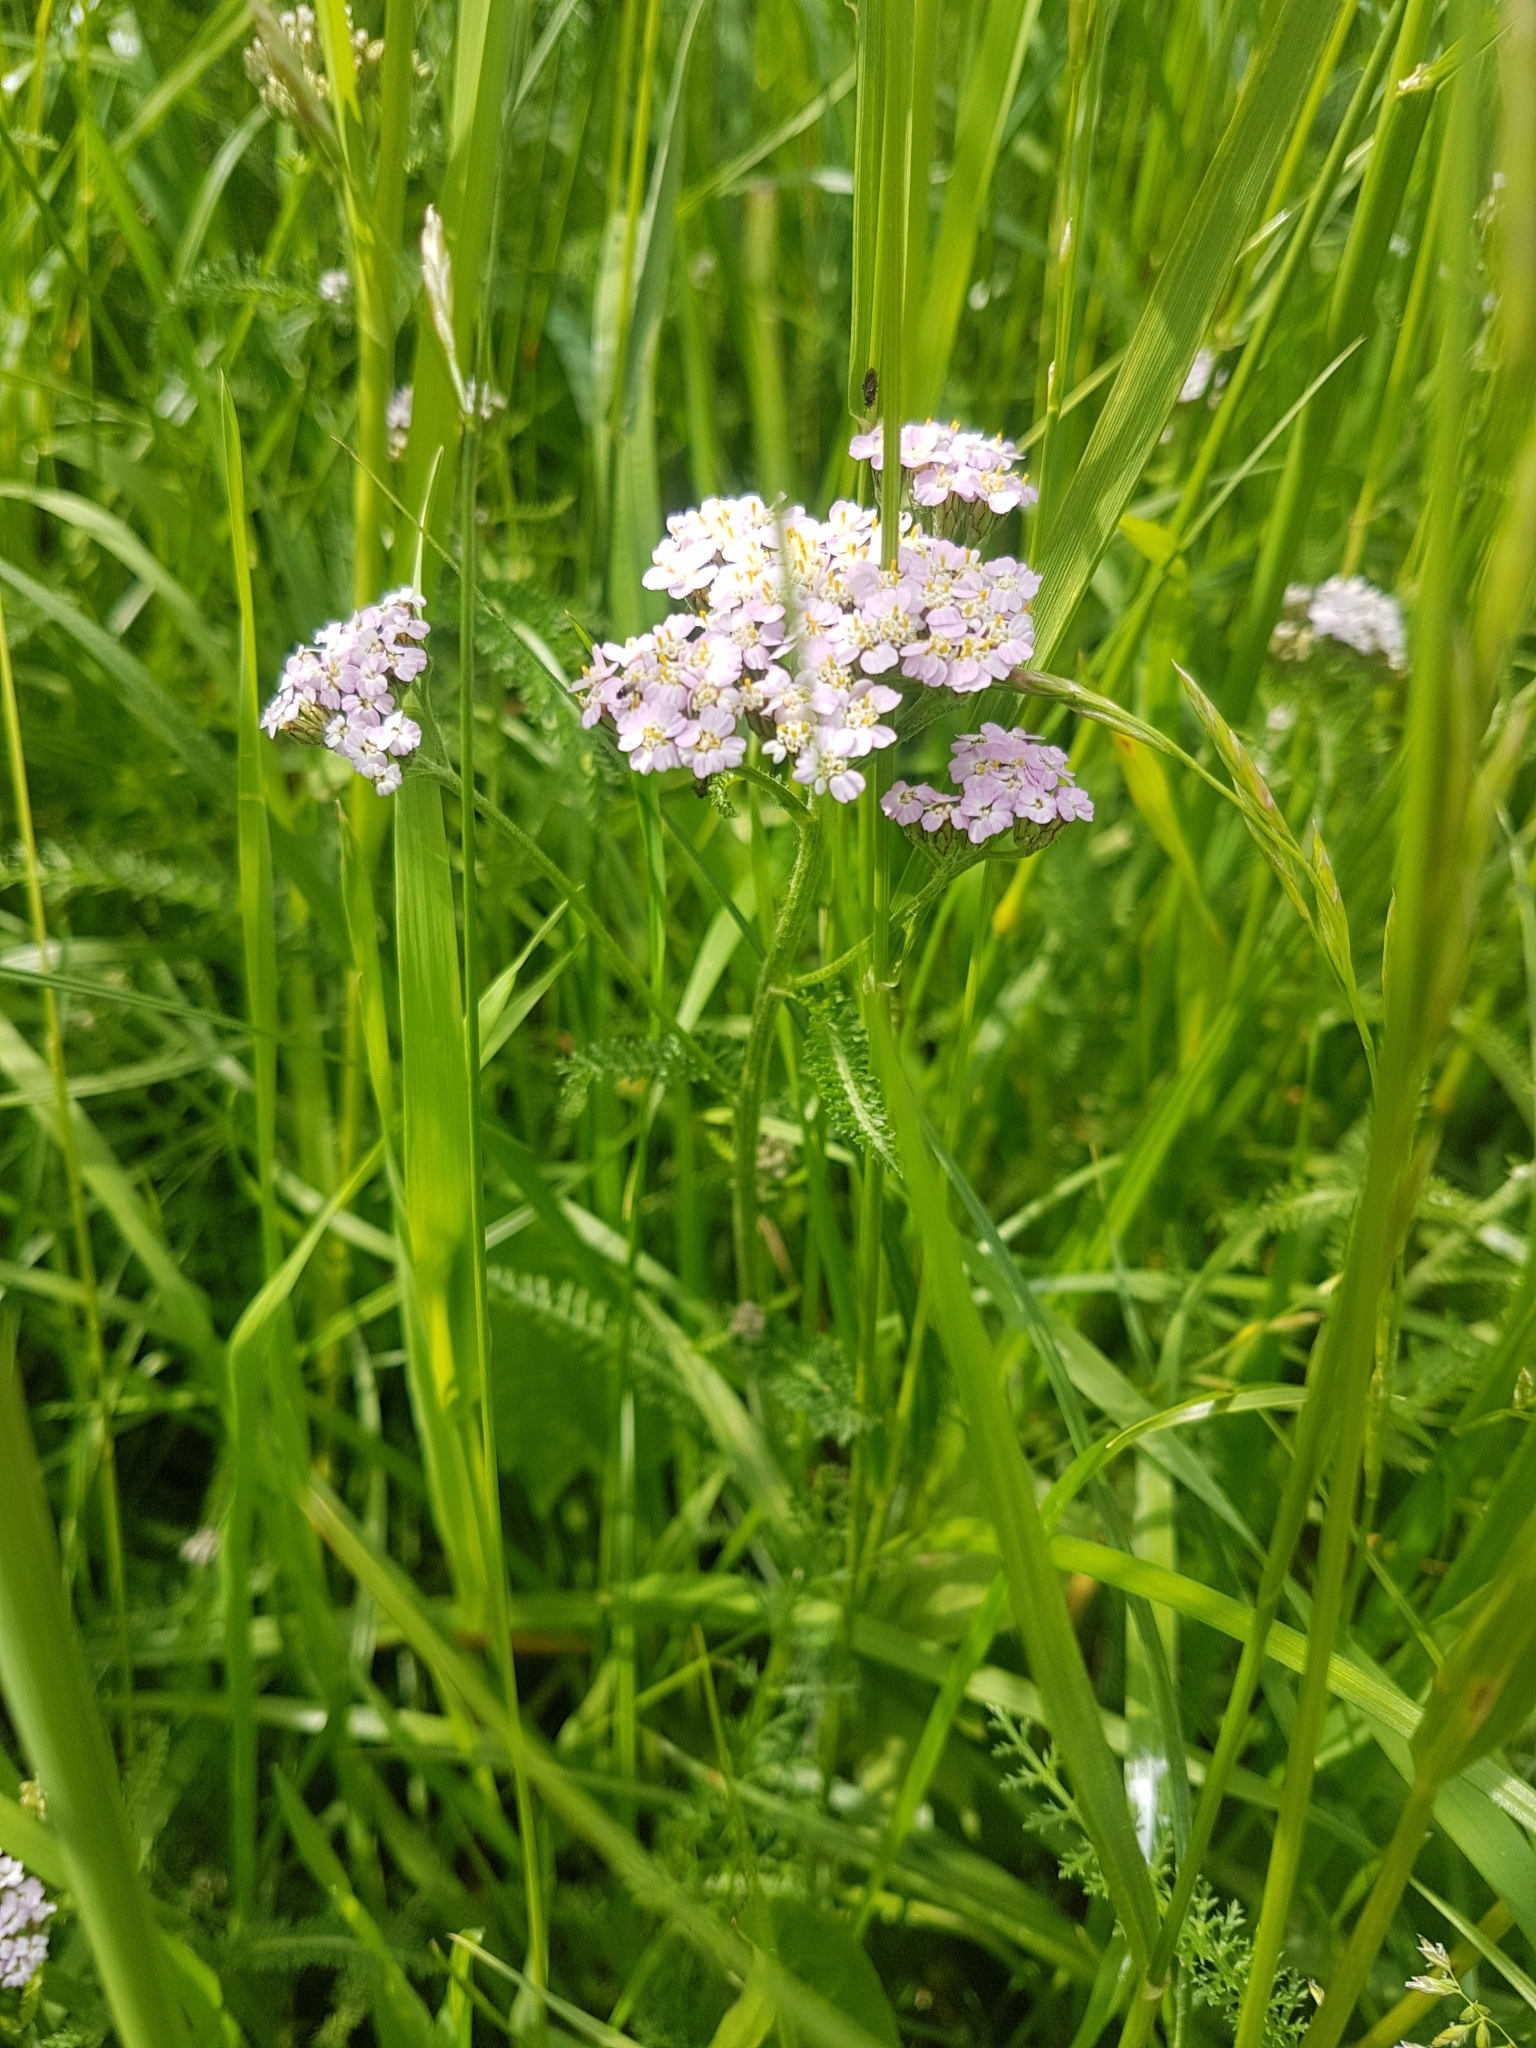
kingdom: Plantae
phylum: Tracheophyta
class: Magnoliopsida
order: Asterales
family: Asteraceae
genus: Achillea
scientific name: Achillea millefolium
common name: Yarrow
